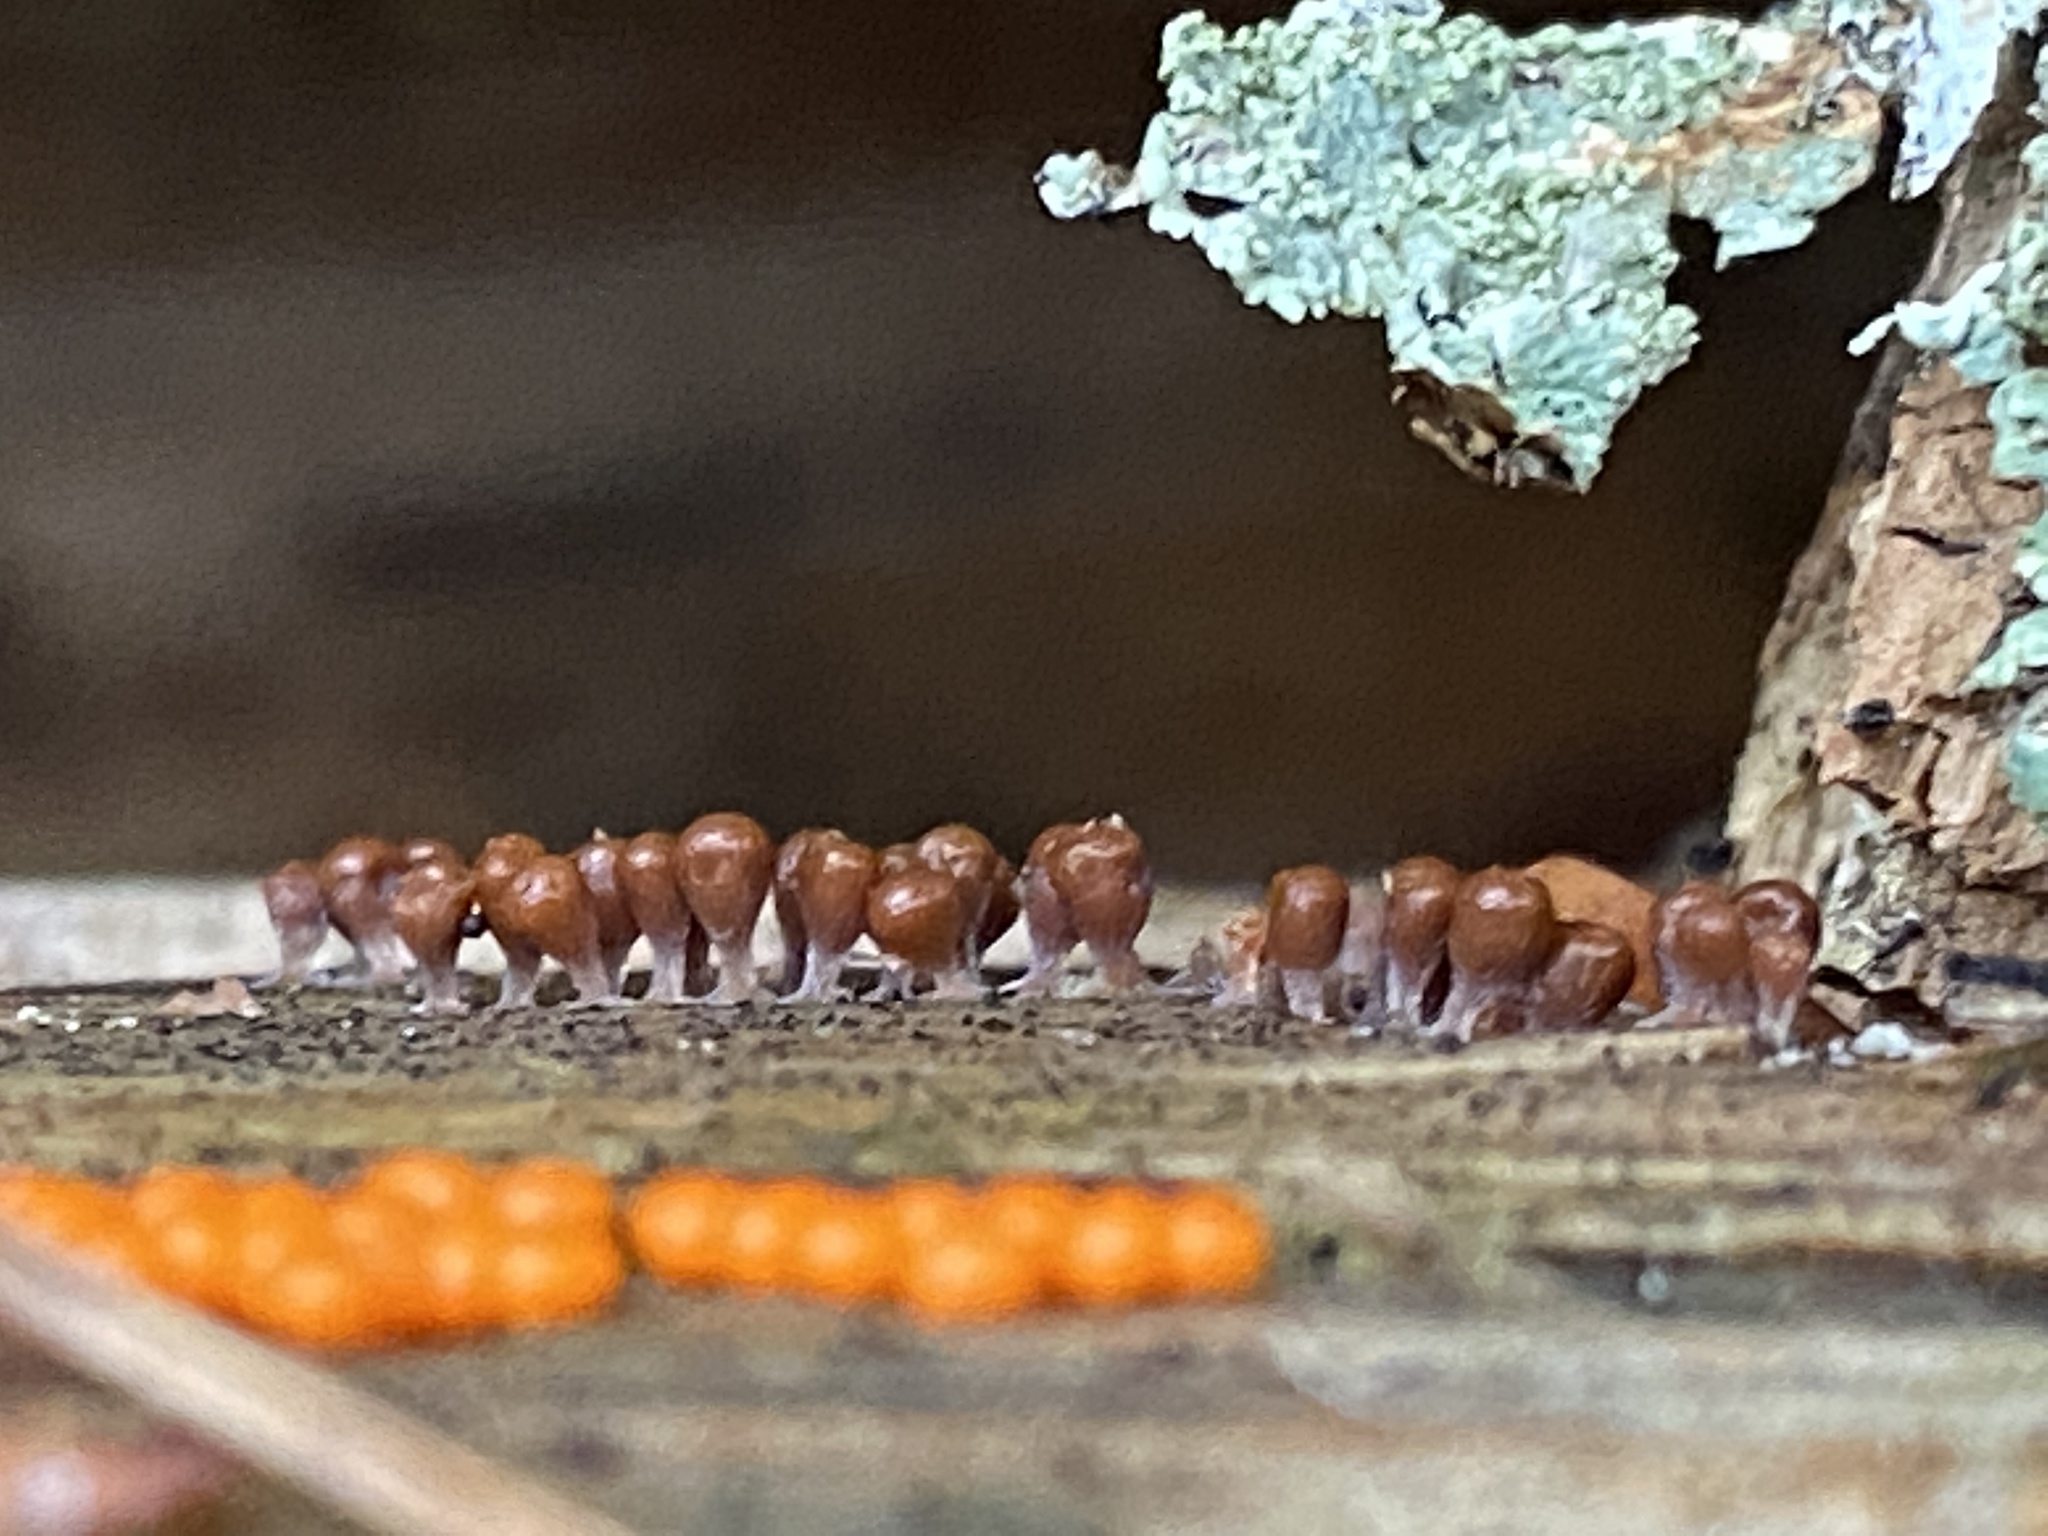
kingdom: Protozoa
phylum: Mycetozoa
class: Myxomycetes
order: Trichiales
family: Arcyriaceae
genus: Hemitrichia
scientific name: Hemitrichia decipiens
